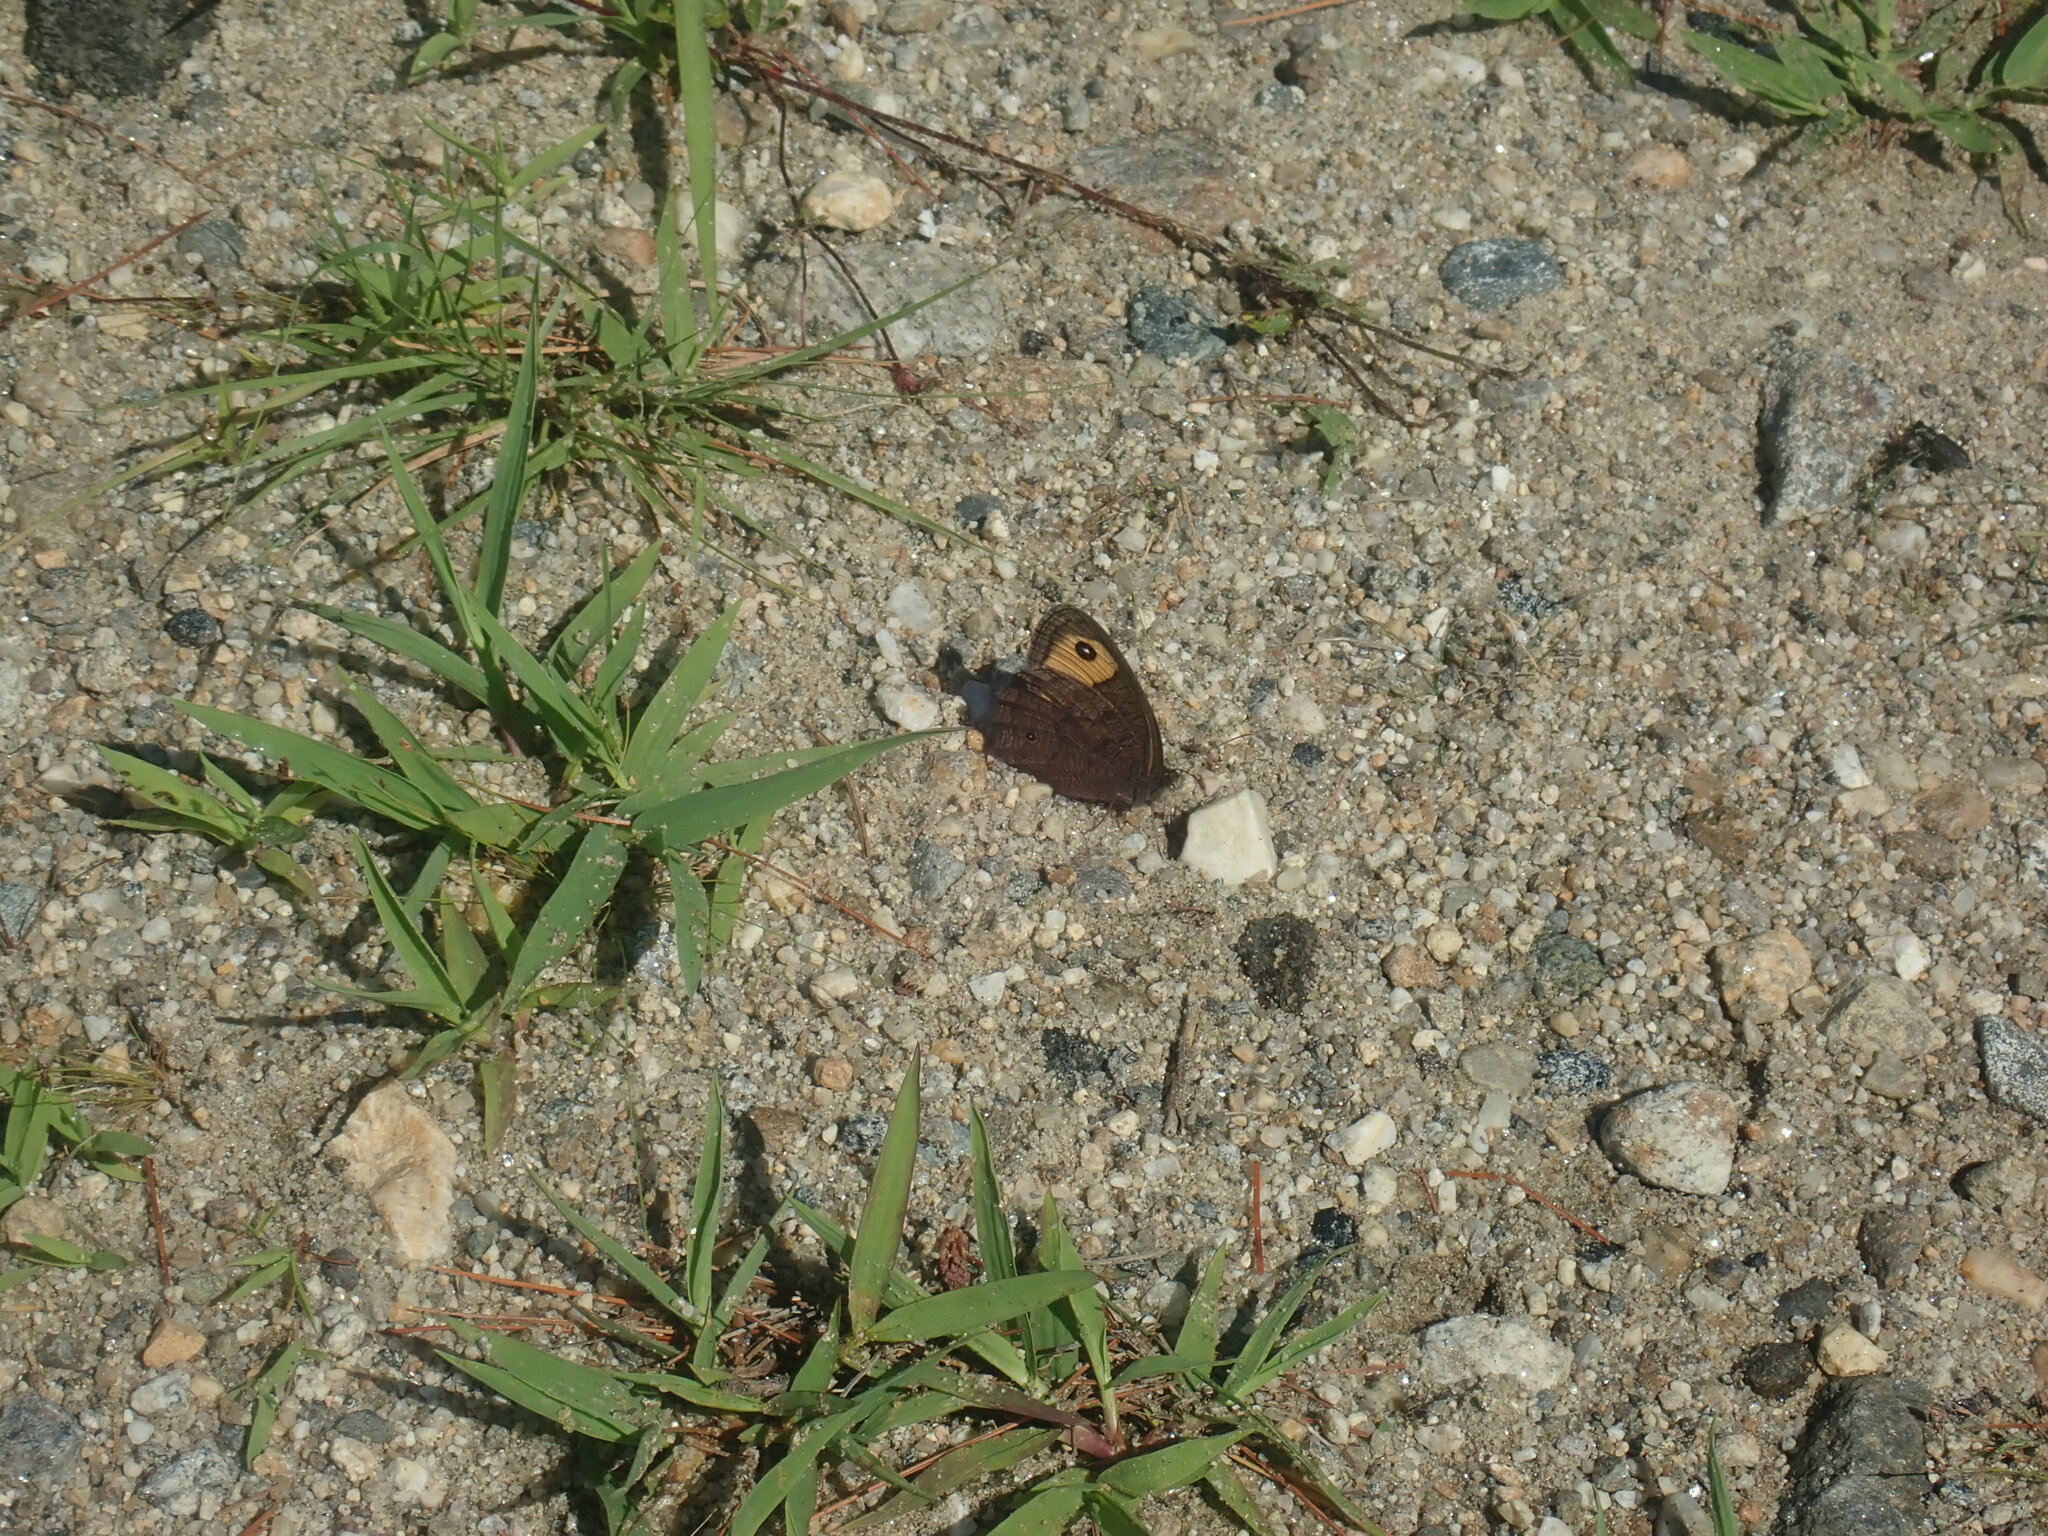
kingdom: Animalia
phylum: Arthropoda
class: Insecta
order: Lepidoptera
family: Nymphalidae
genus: Cercyonis
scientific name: Cercyonis pegala
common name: Common wood-nymph
